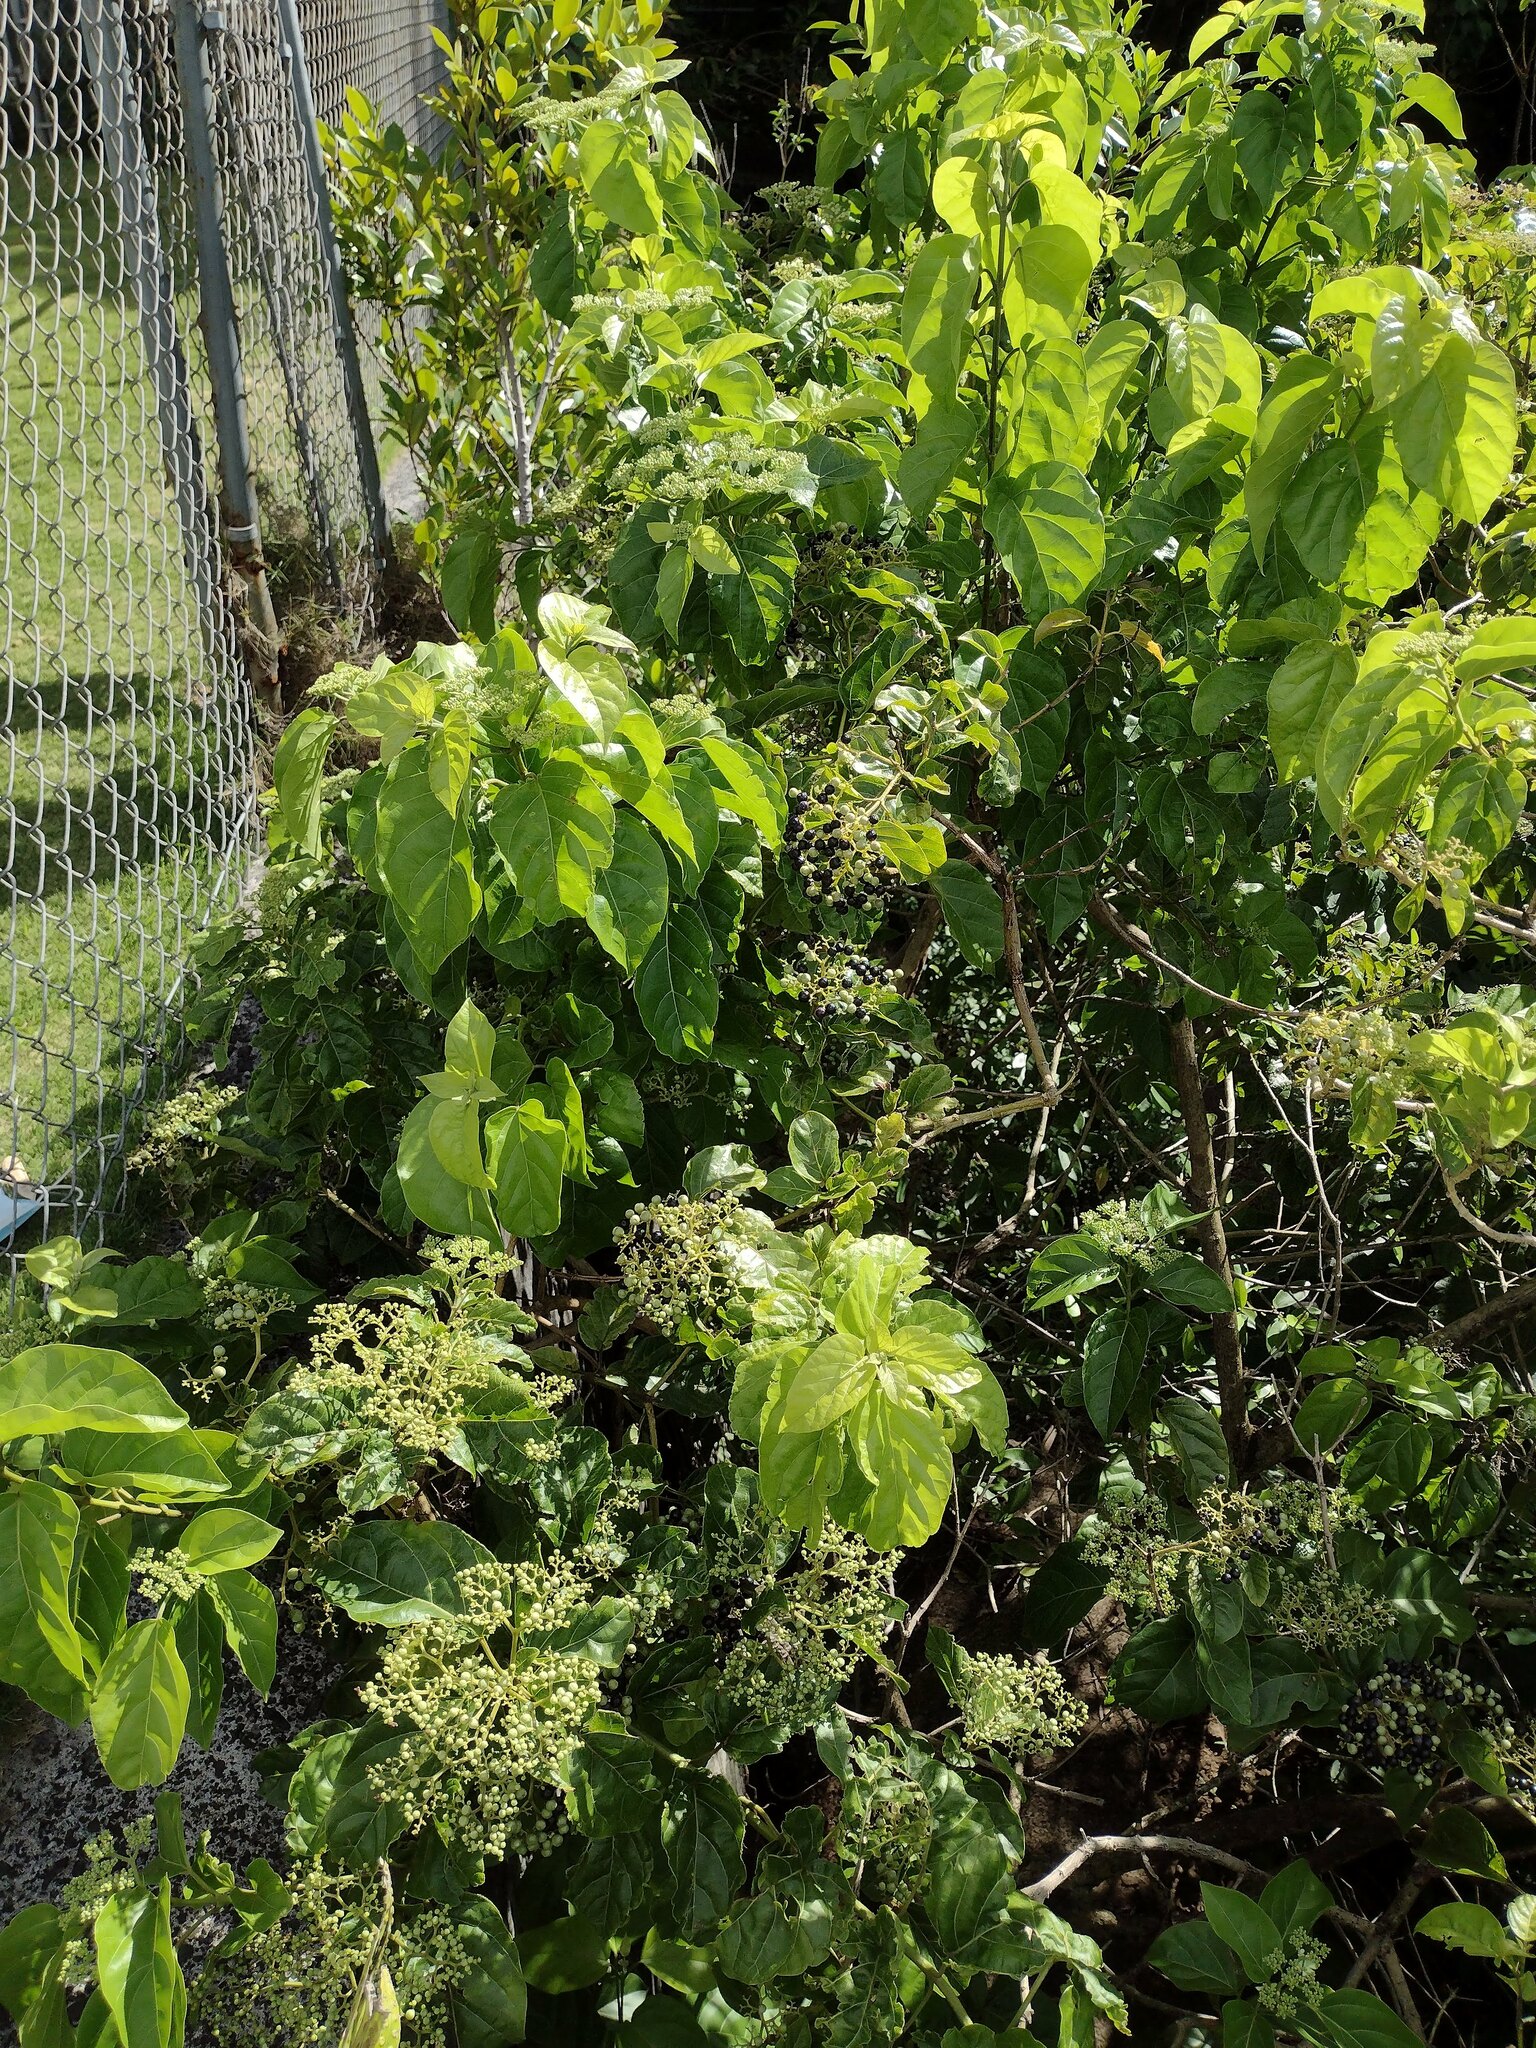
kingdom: Plantae
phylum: Tracheophyta
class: Magnoliopsida
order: Lamiales
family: Lamiaceae
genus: Premna
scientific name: Premna serratifolia
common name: Bastard guelder
